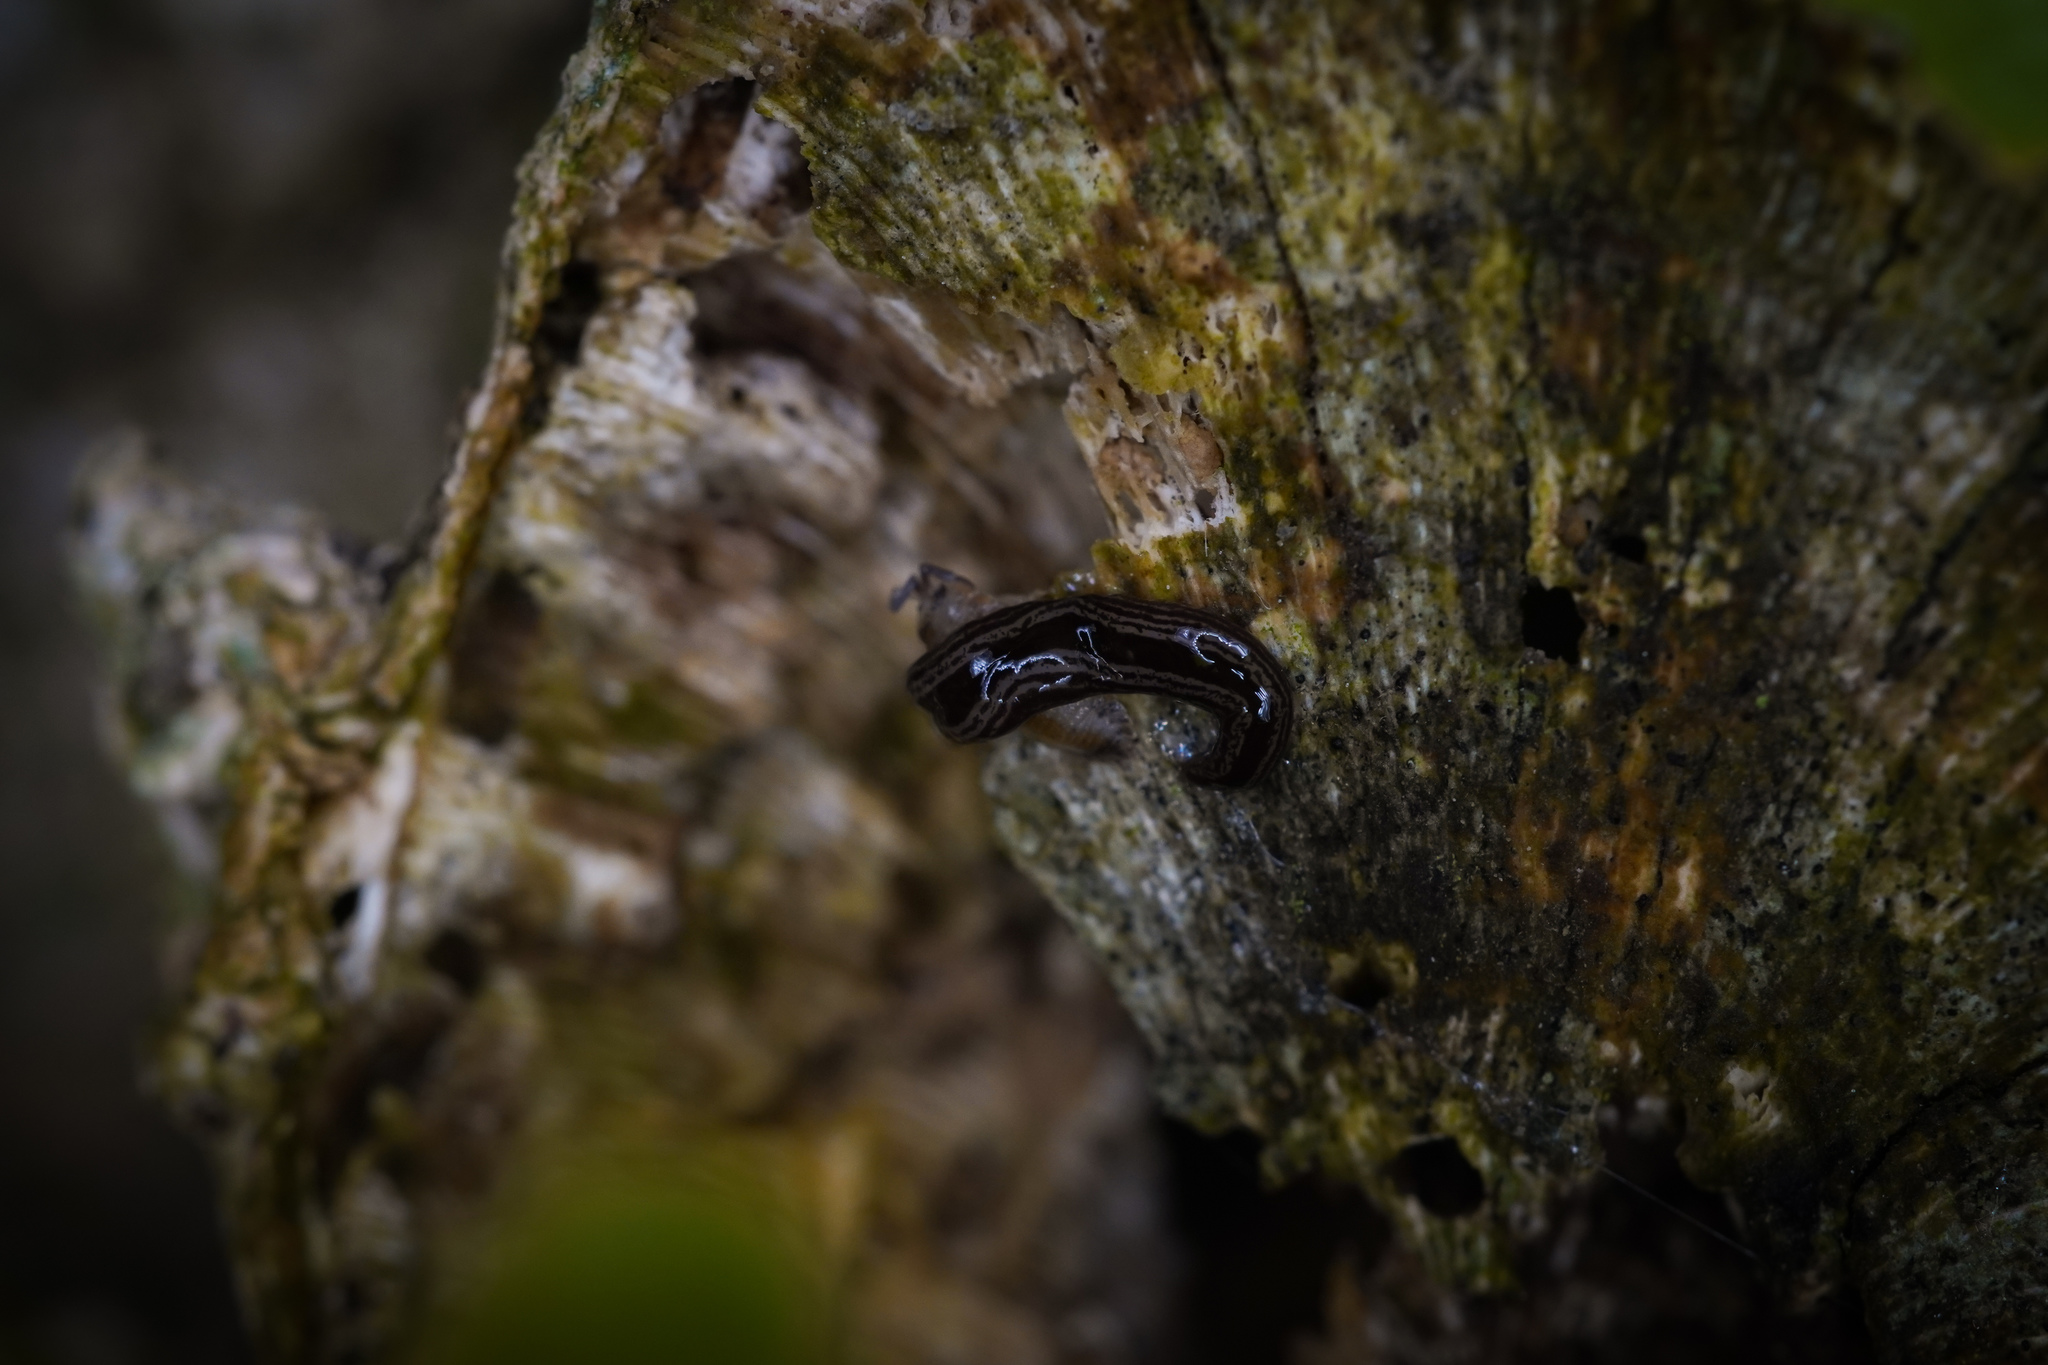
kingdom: Animalia
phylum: Platyhelminthes
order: Tricladida
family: Geoplanidae
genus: Artioposthia
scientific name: Artioposthia exulans
